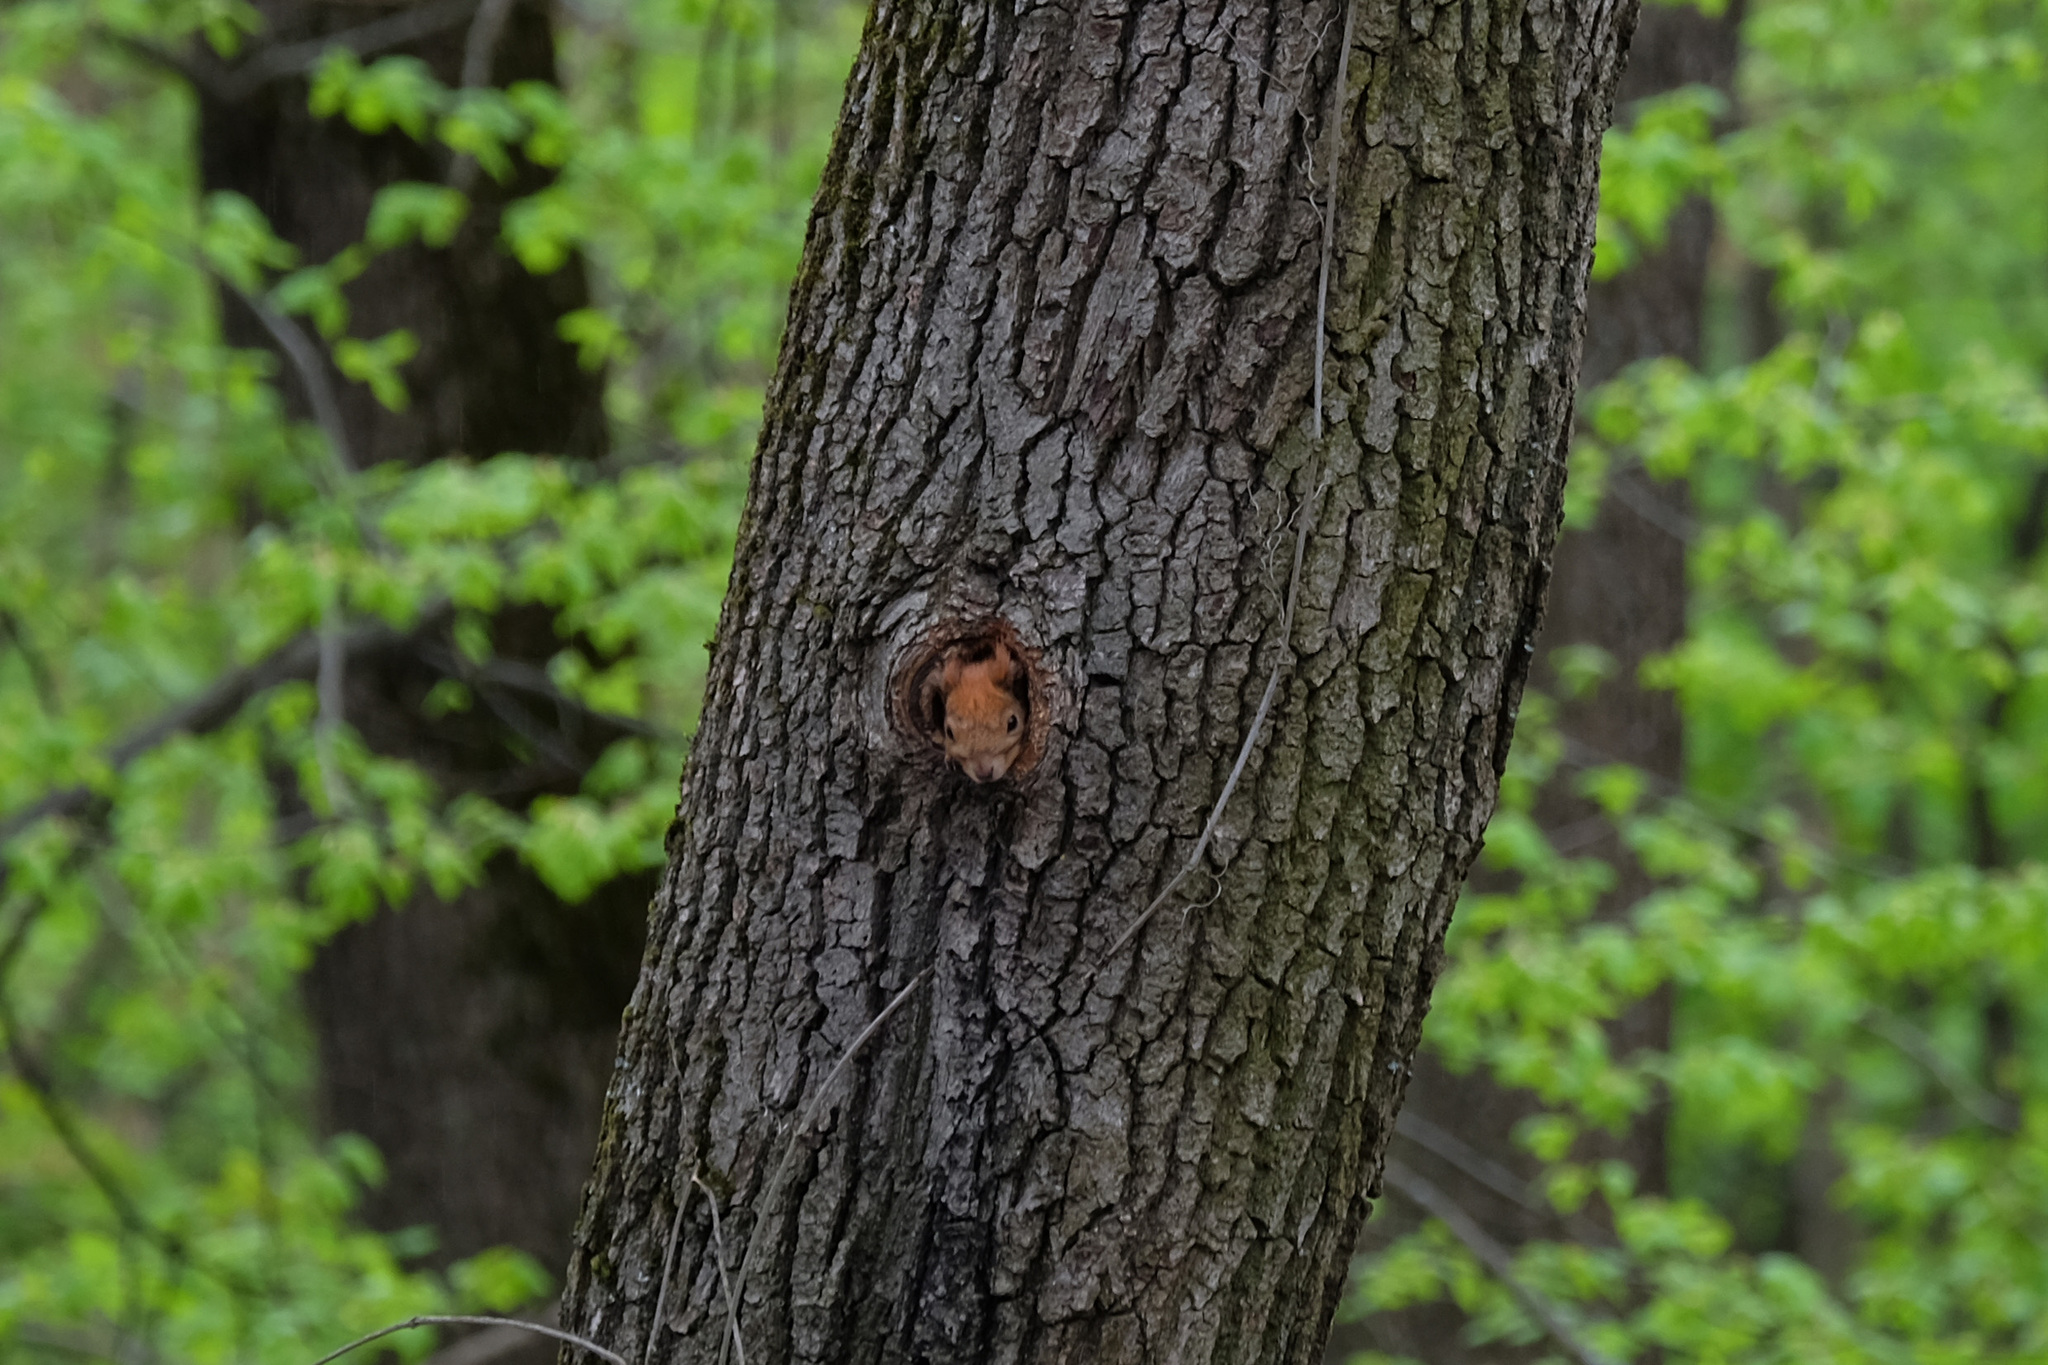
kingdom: Animalia
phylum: Chordata
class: Mammalia
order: Rodentia
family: Sciuridae
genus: Sciurus
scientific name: Sciurus vulgaris
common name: Eurasian red squirrel
